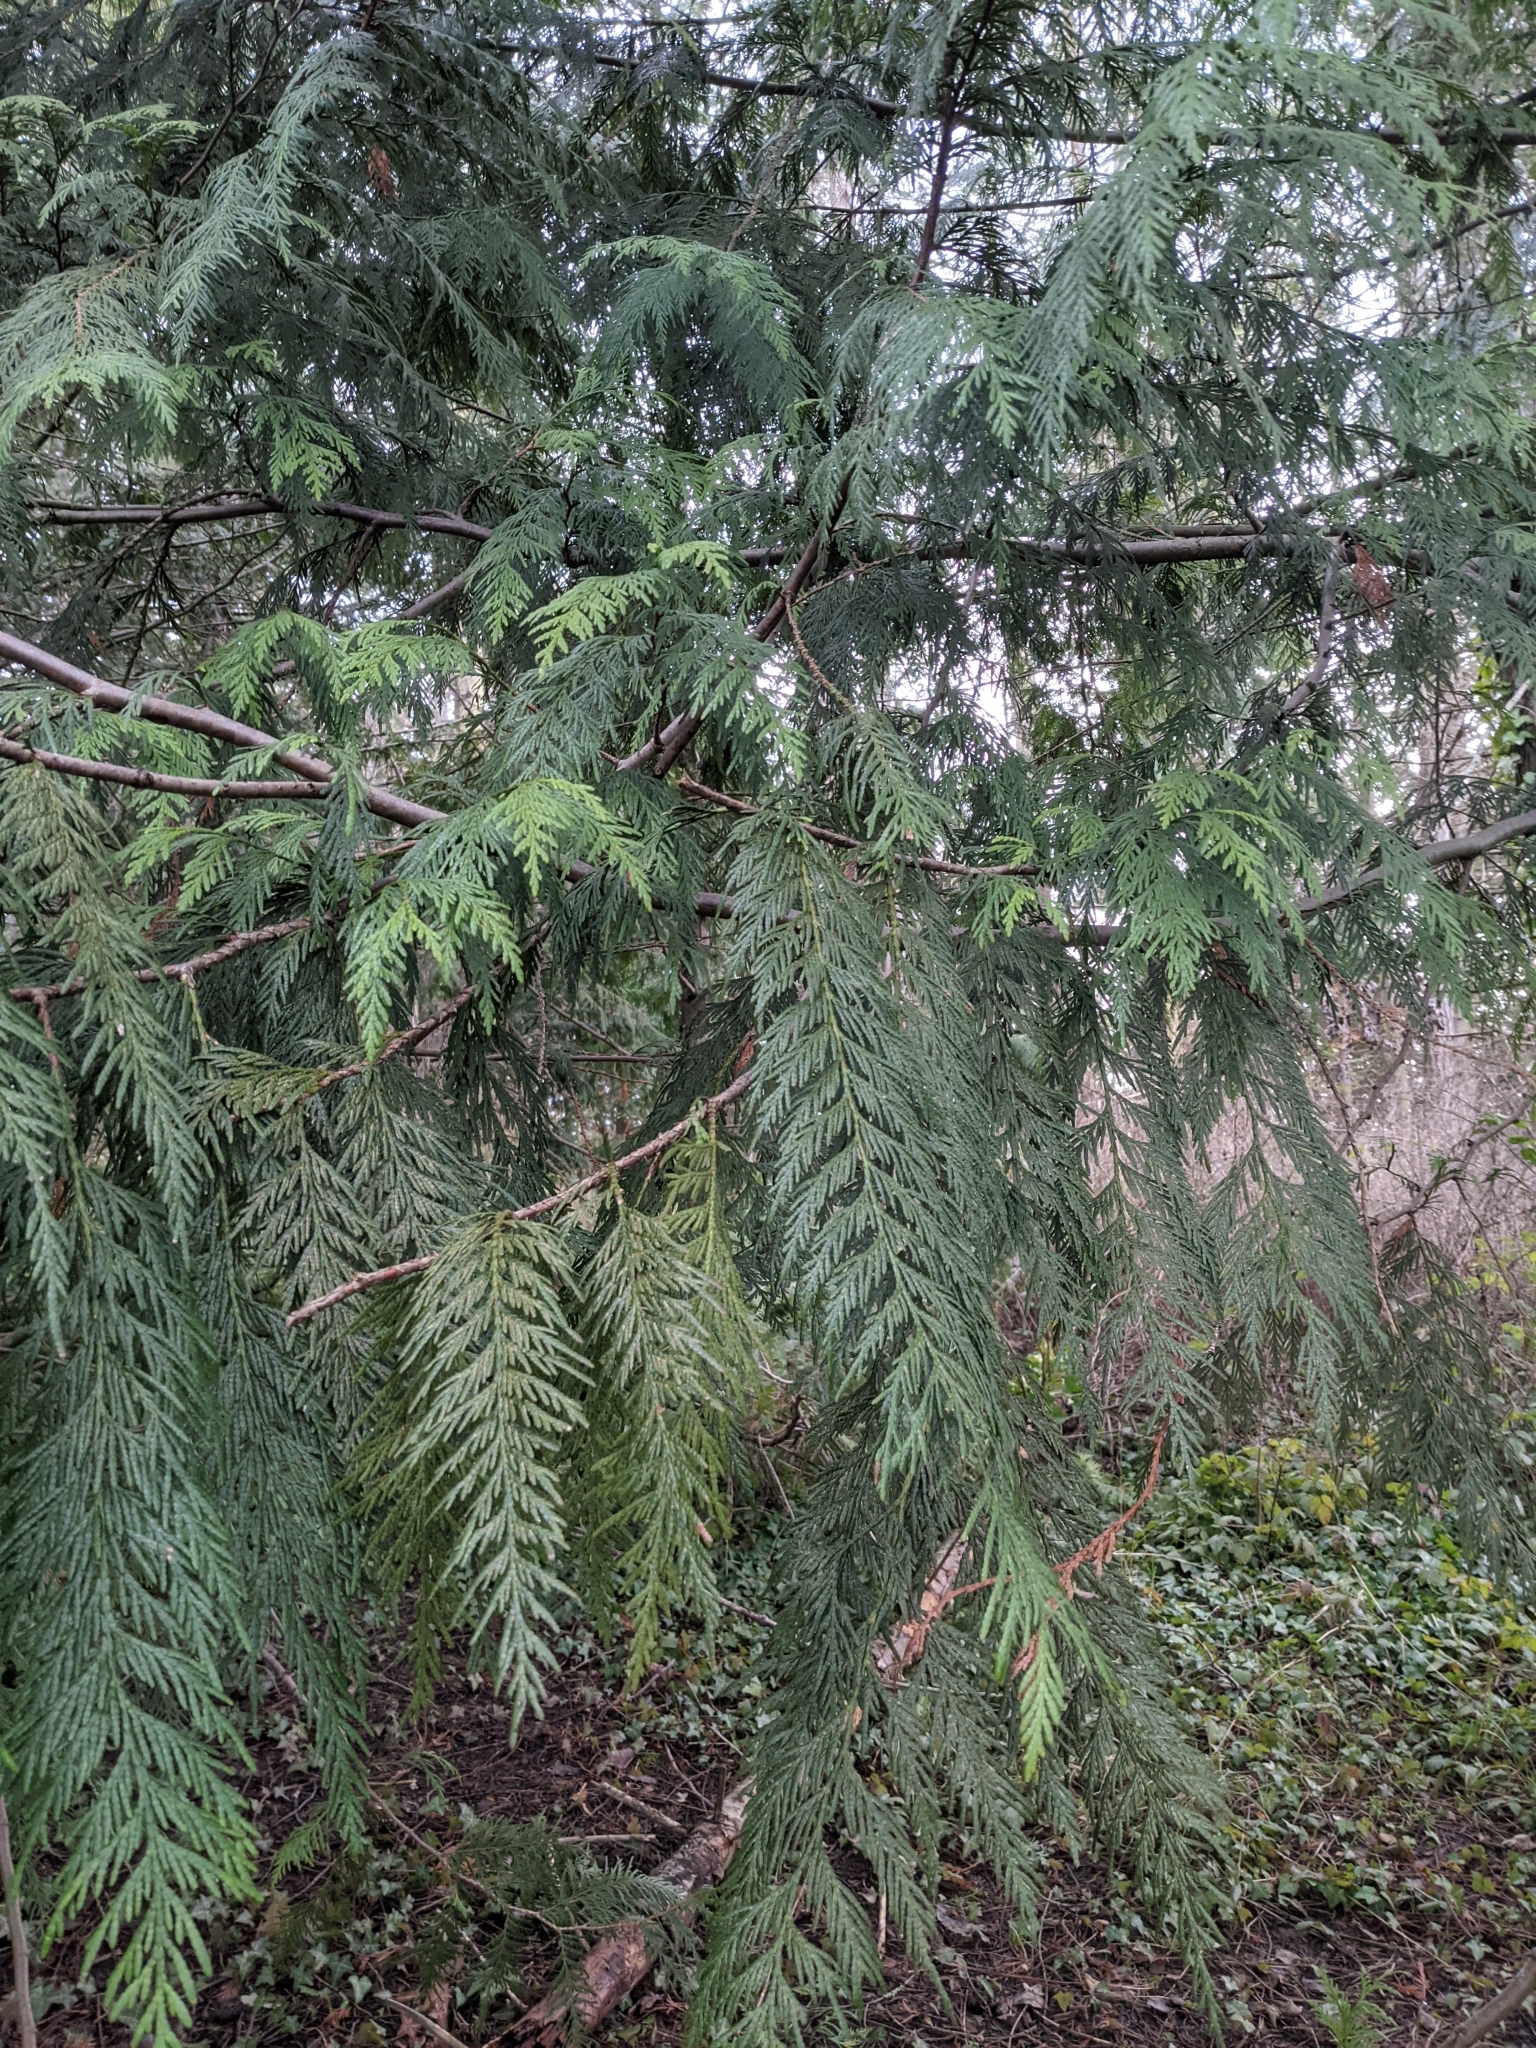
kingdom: Plantae
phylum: Tracheophyta
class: Pinopsida
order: Pinales
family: Cupressaceae
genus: Thuja
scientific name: Thuja plicata
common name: Western red-cedar
